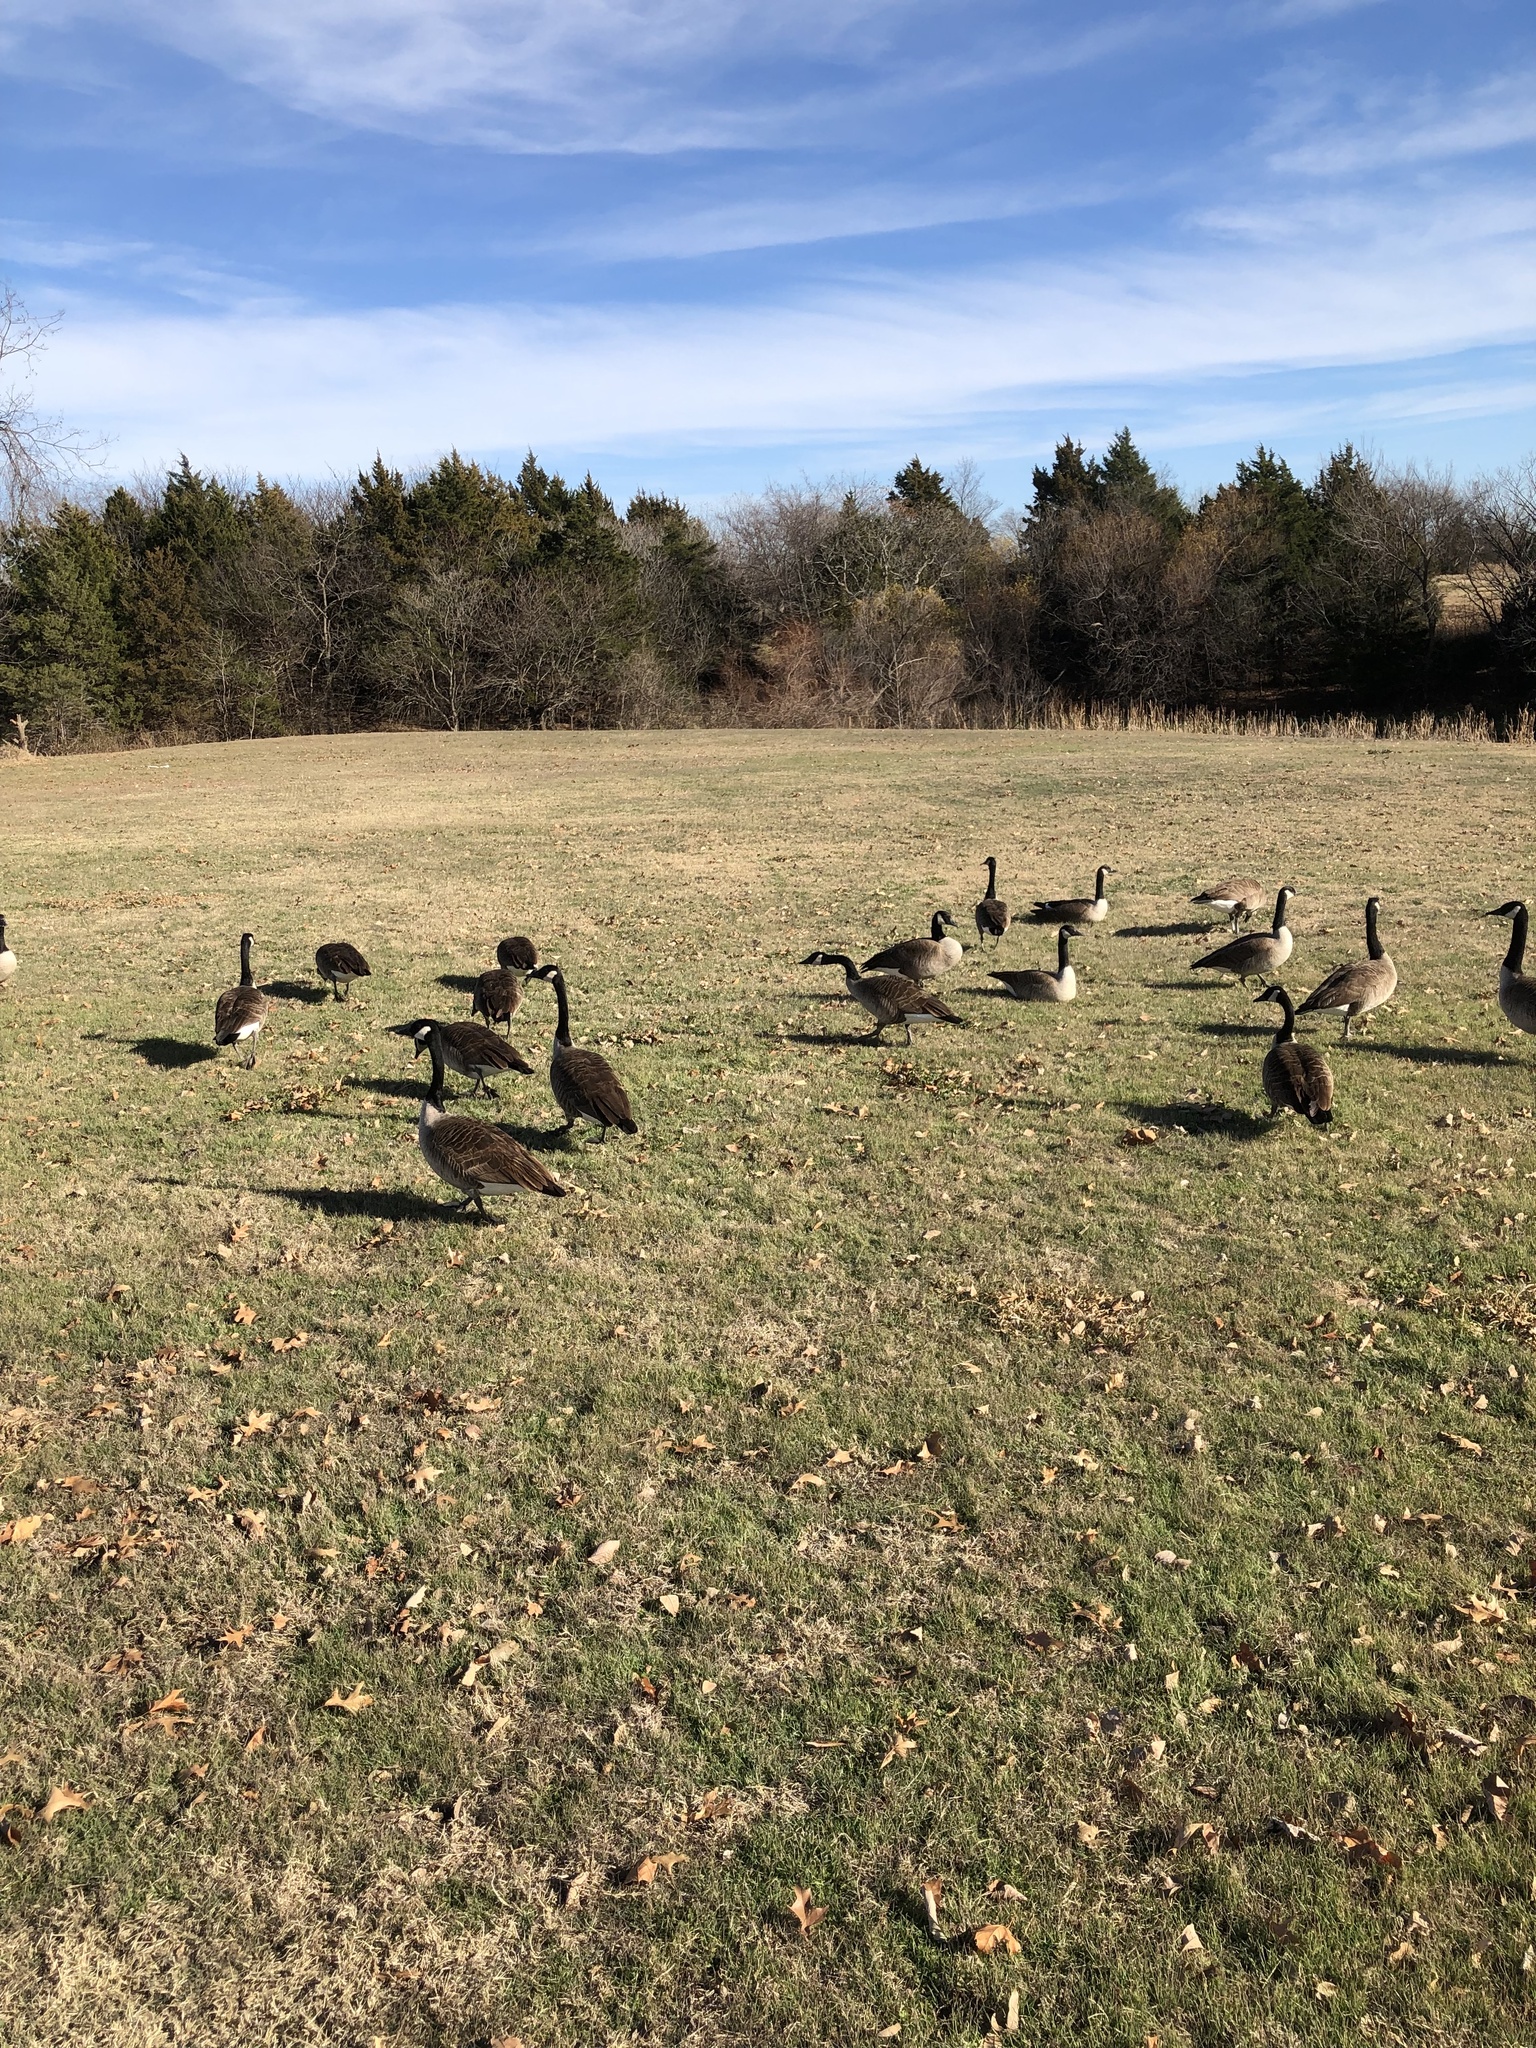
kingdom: Animalia
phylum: Chordata
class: Aves
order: Anseriformes
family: Anatidae
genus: Branta
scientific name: Branta canadensis
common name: Canada goose
